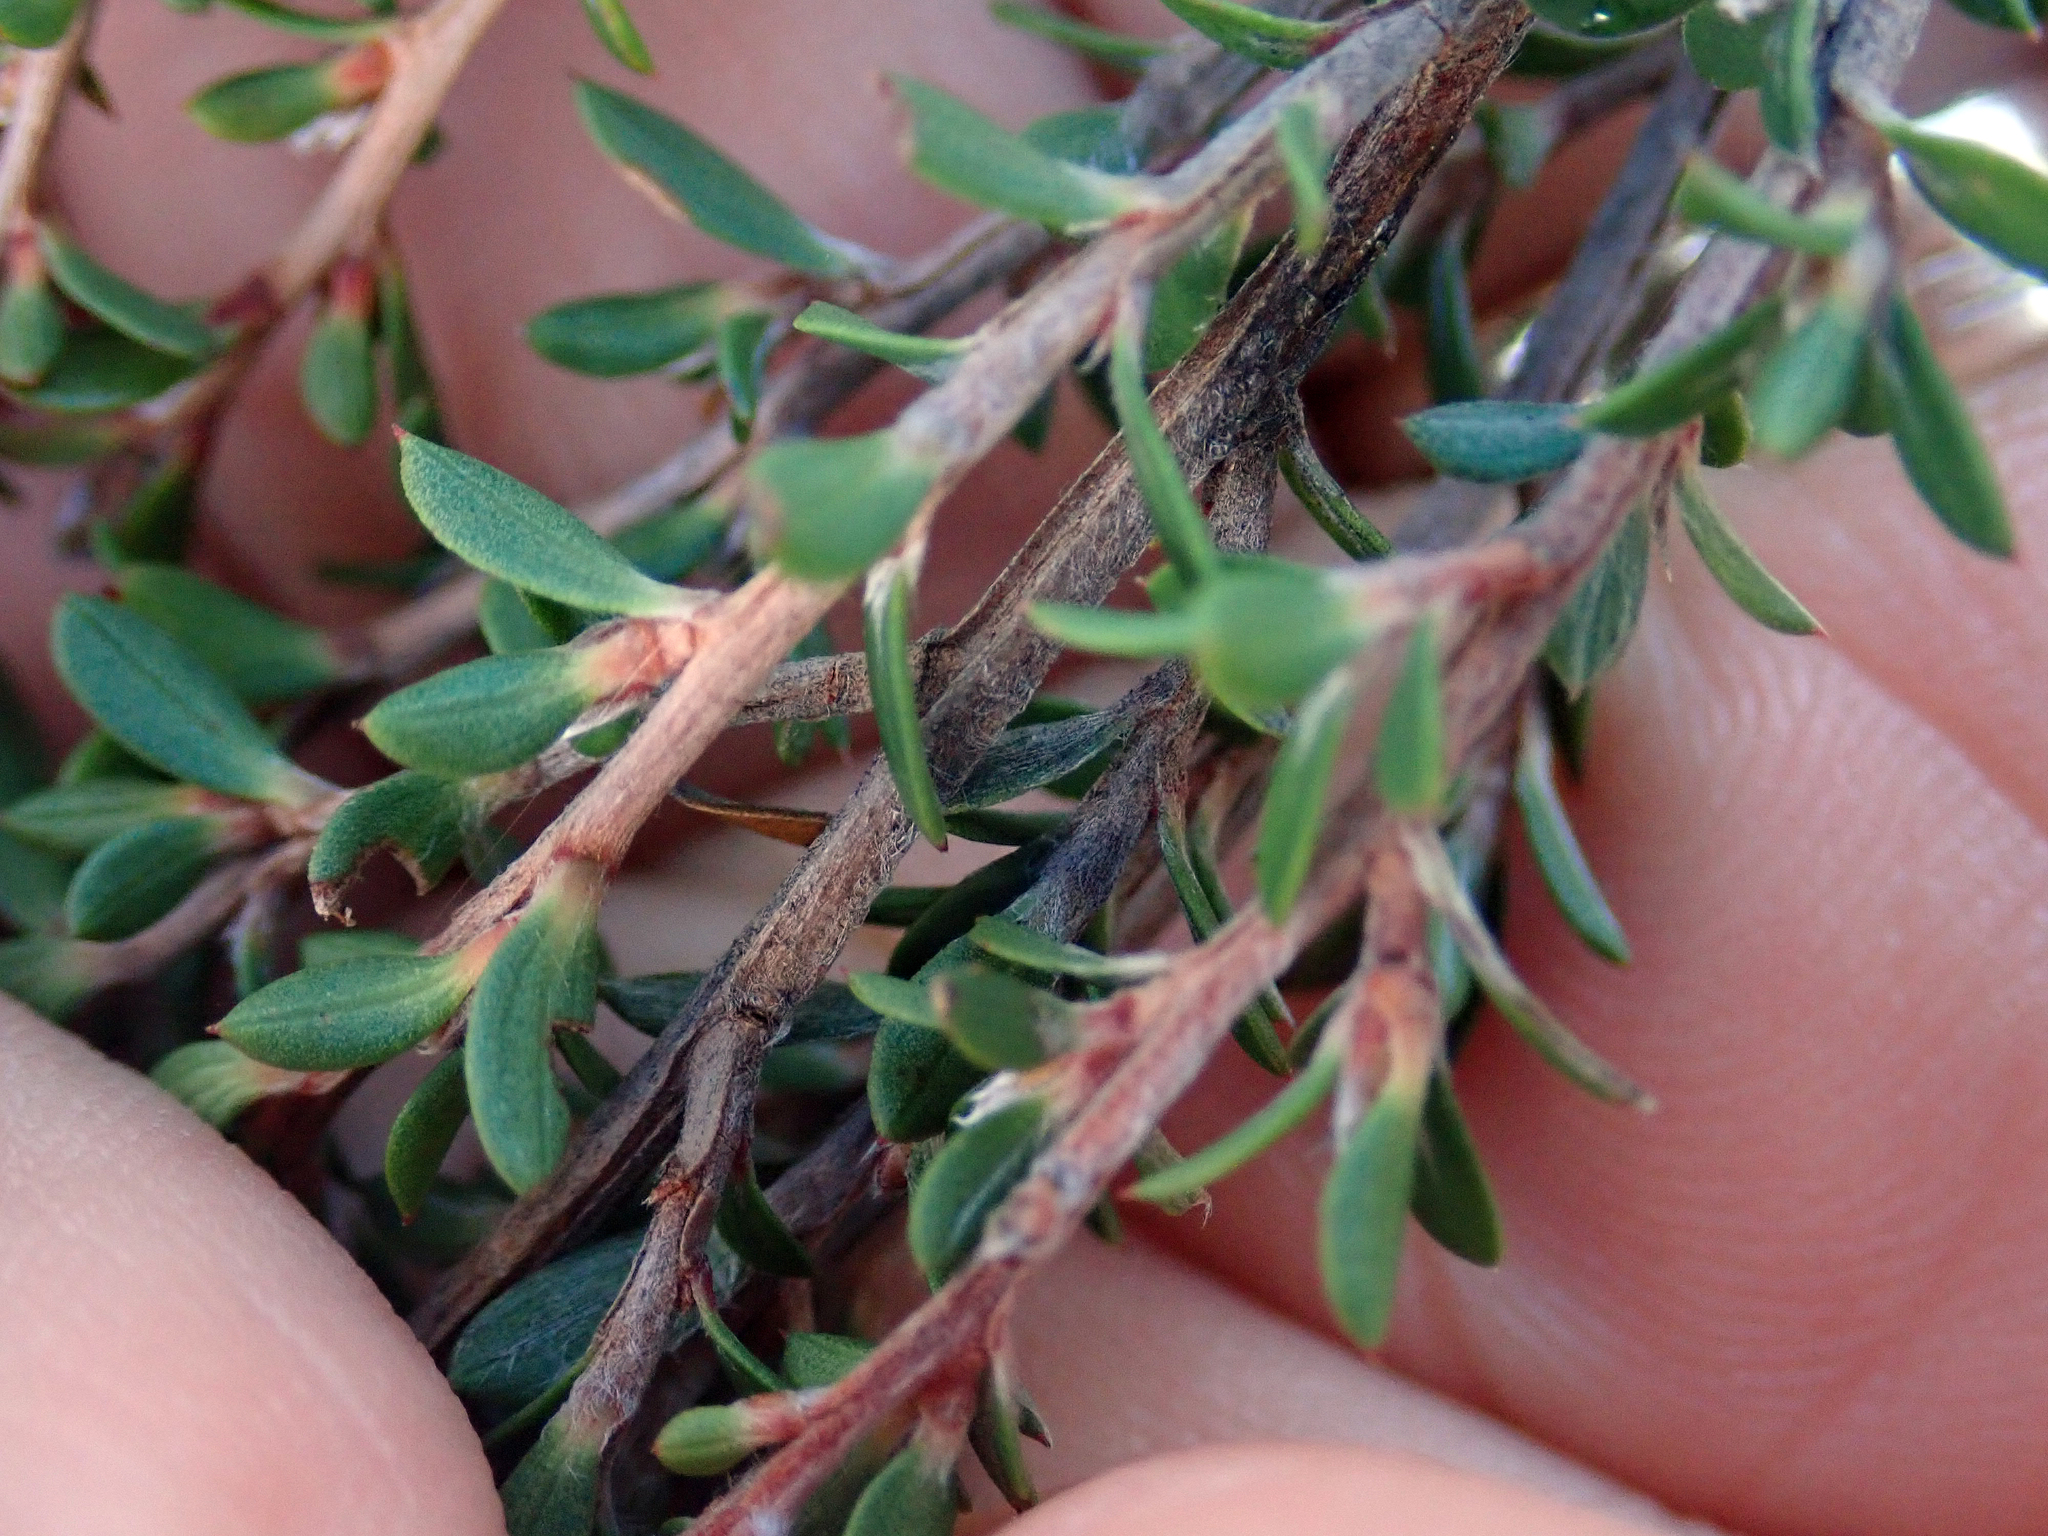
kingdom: Plantae
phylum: Tracheophyta
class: Magnoliopsida
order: Myrtales
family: Myrtaceae
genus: Leptospermum
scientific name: Leptospermum scoparium
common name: Broom tea-tree
